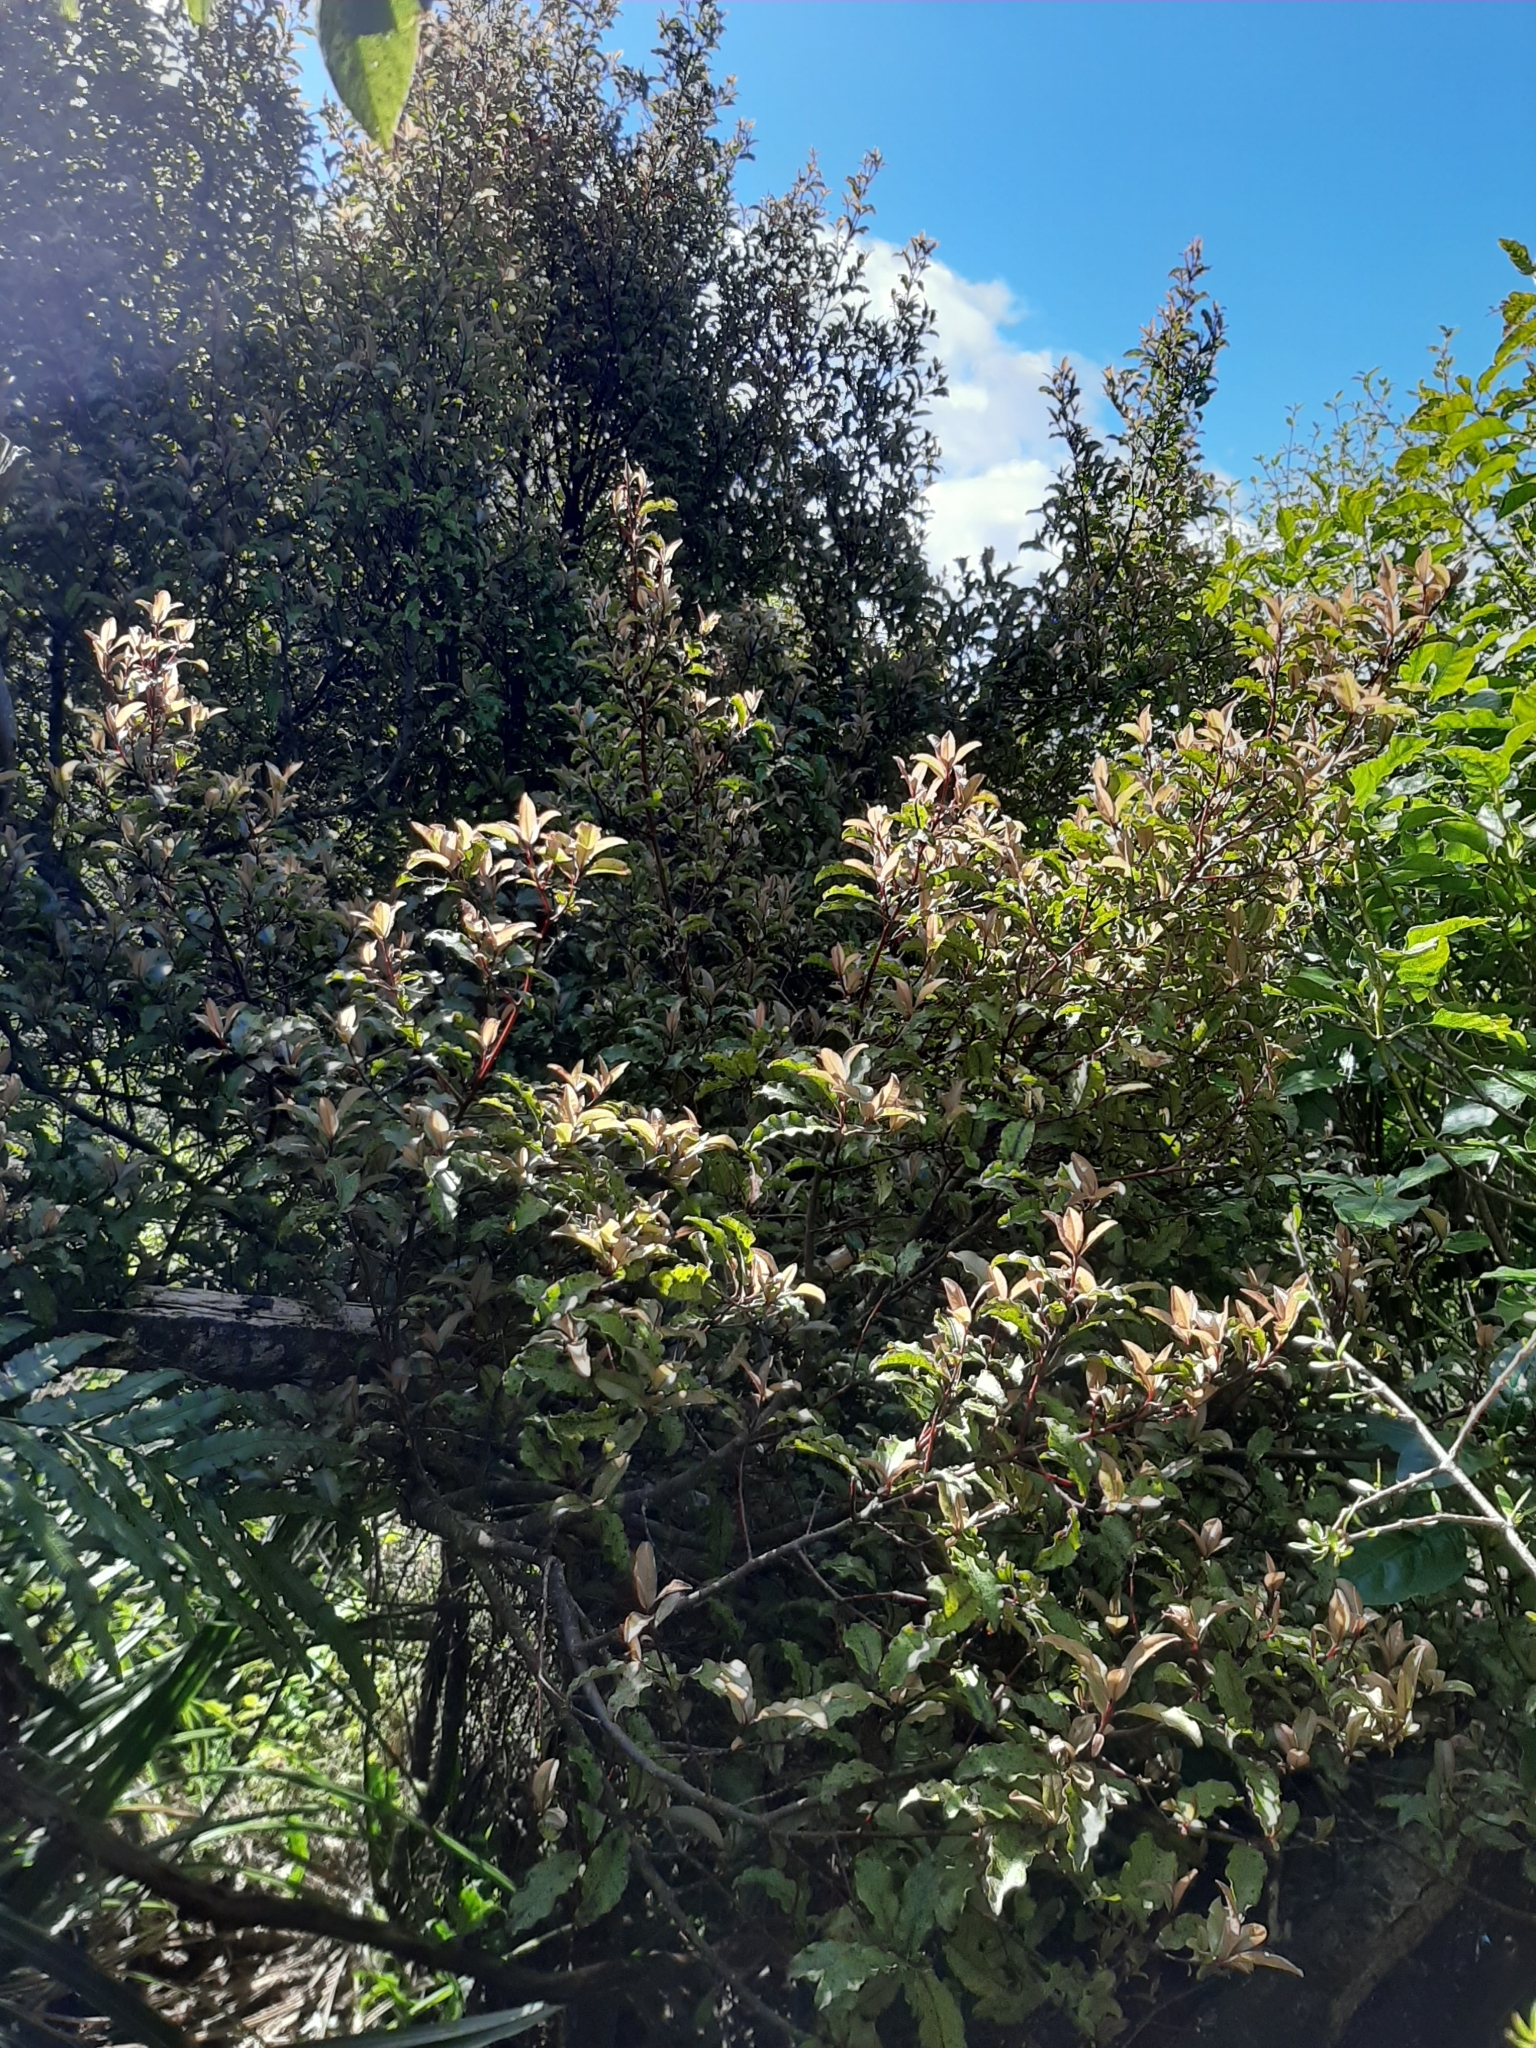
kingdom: Plantae
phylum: Tracheophyta
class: Magnoliopsida
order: Ericales
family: Primulaceae
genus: Myrsine
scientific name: Myrsine australis
